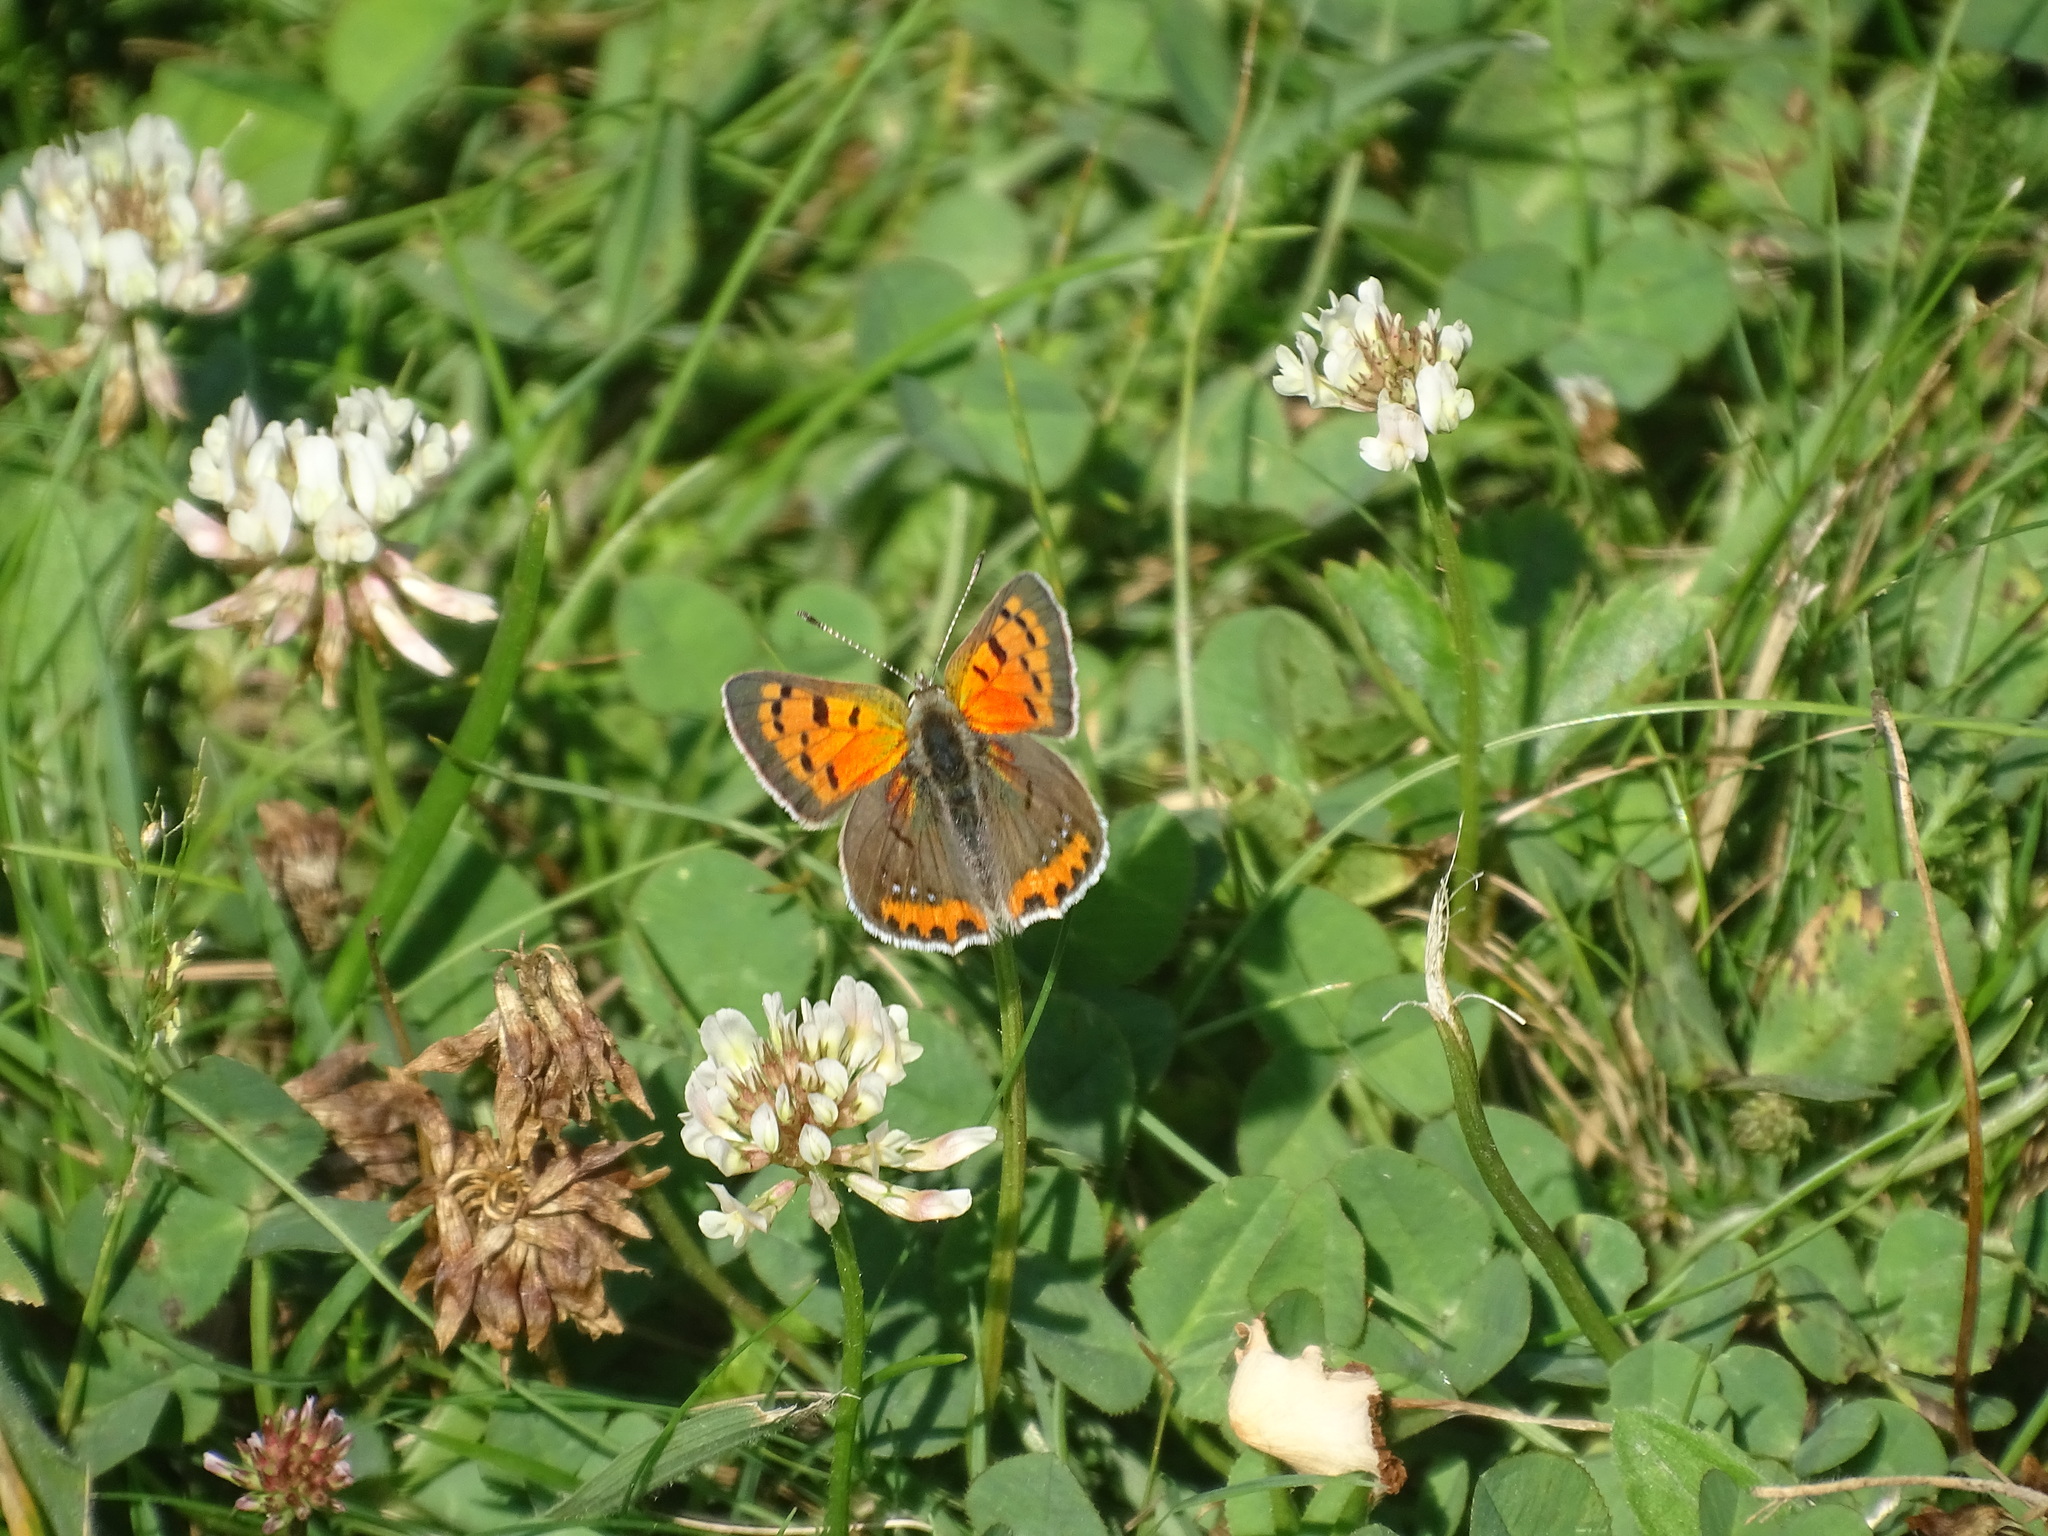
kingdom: Animalia
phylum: Arthropoda
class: Insecta
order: Lepidoptera
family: Lycaenidae
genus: Lycaena
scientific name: Lycaena hypophlaeas
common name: American copper
